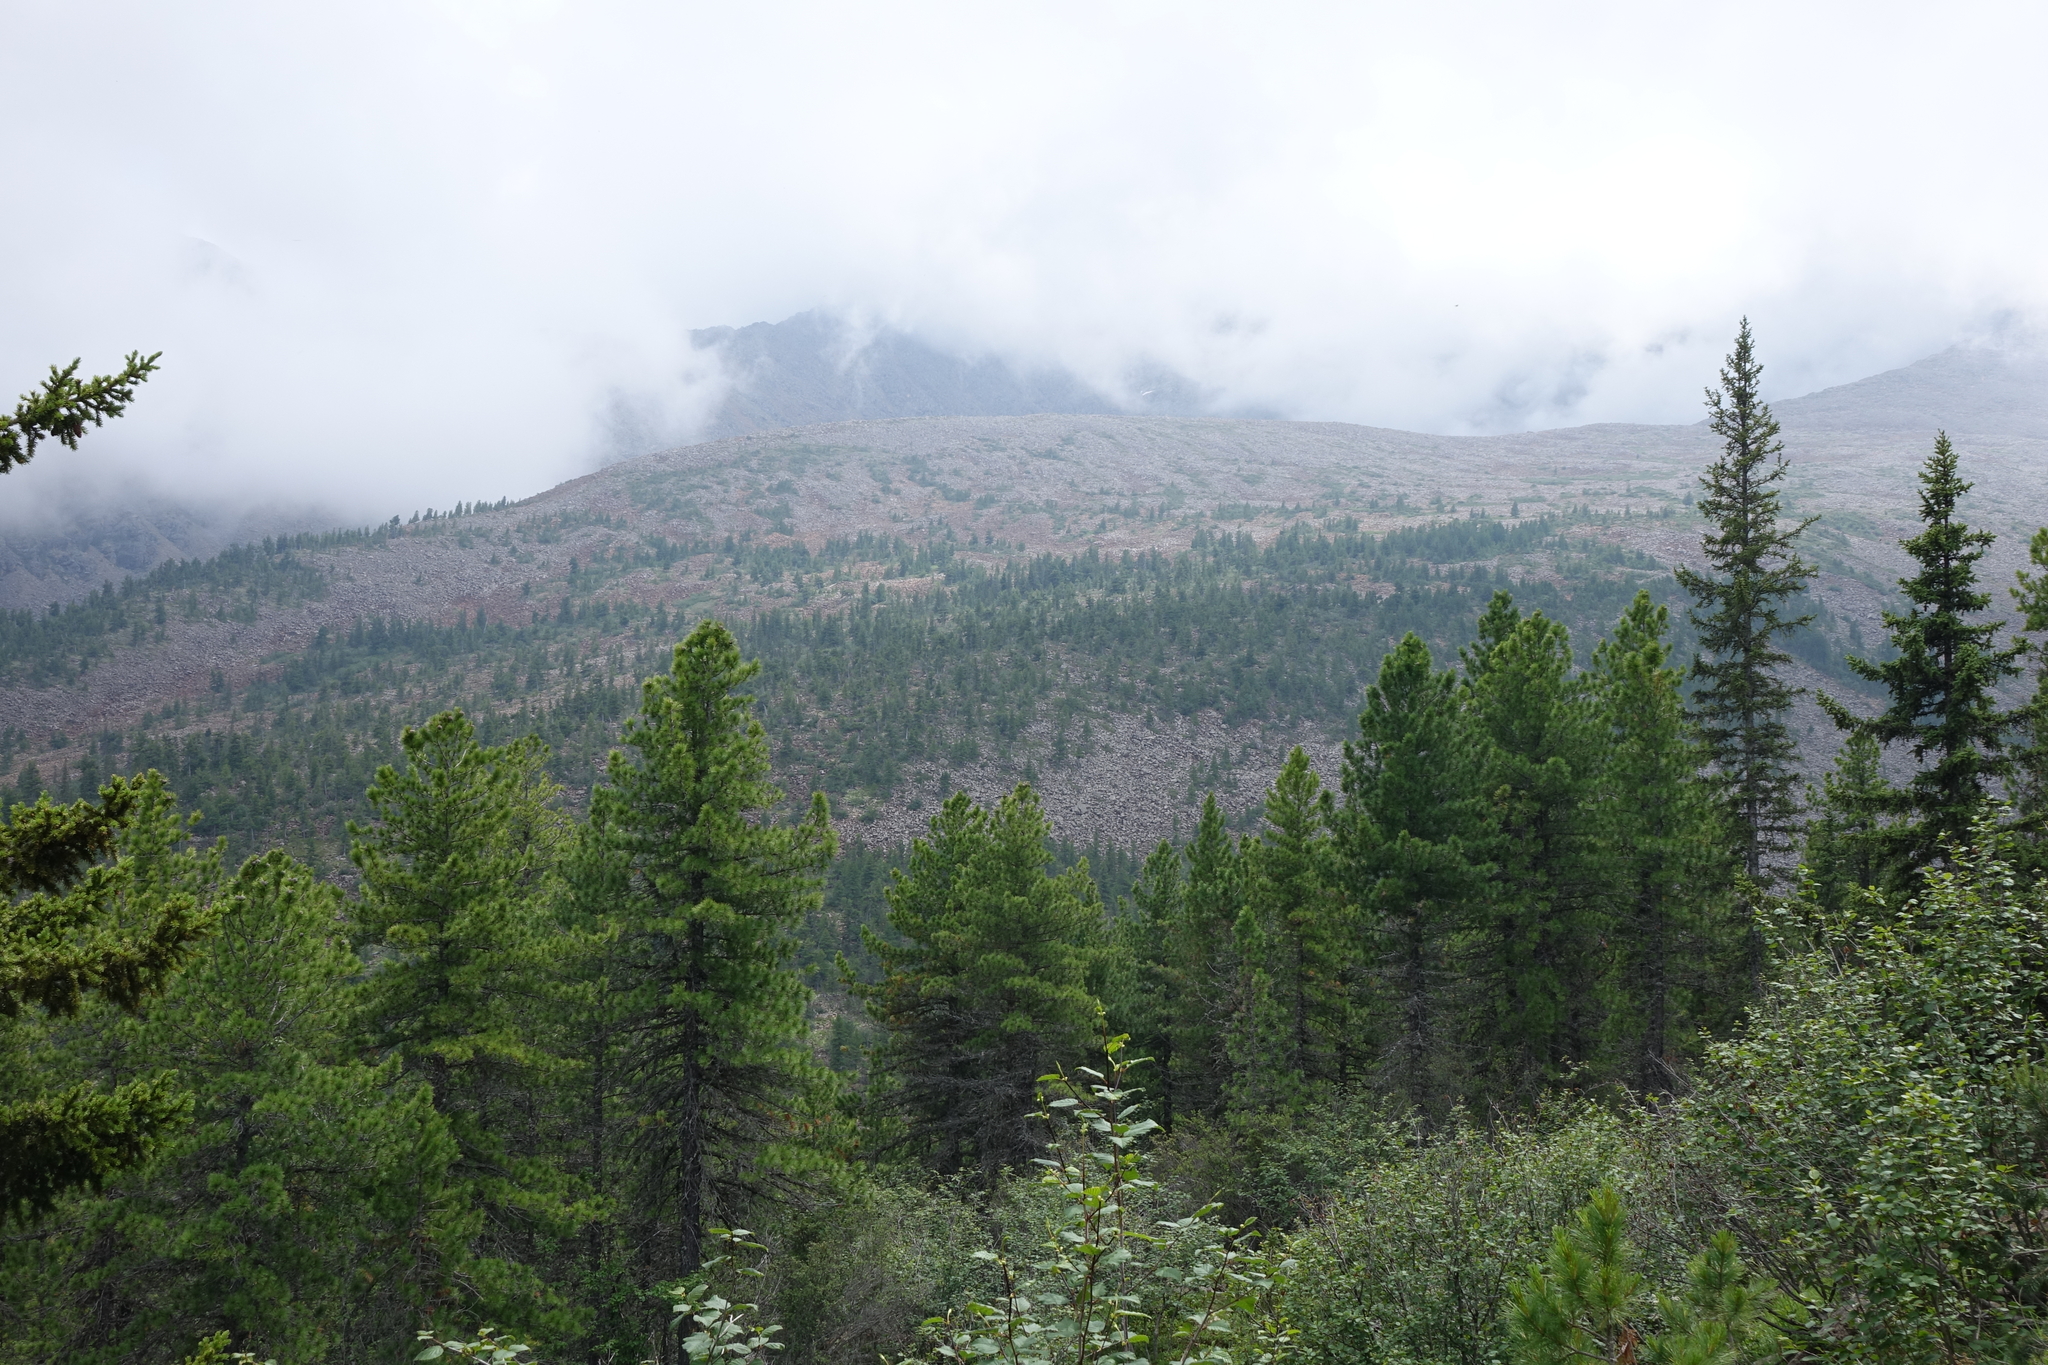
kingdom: Plantae
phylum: Tracheophyta
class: Pinopsida
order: Pinales
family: Pinaceae
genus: Pinus
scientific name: Pinus sibirica
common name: Siberian pine
